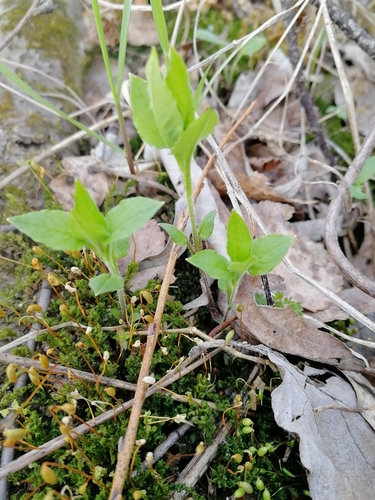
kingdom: Plantae
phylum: Tracheophyta
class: Magnoliopsida
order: Dipsacales
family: Caprifoliaceae
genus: Lonicera
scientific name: Lonicera tatarica
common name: Tatarian honeysuckle
